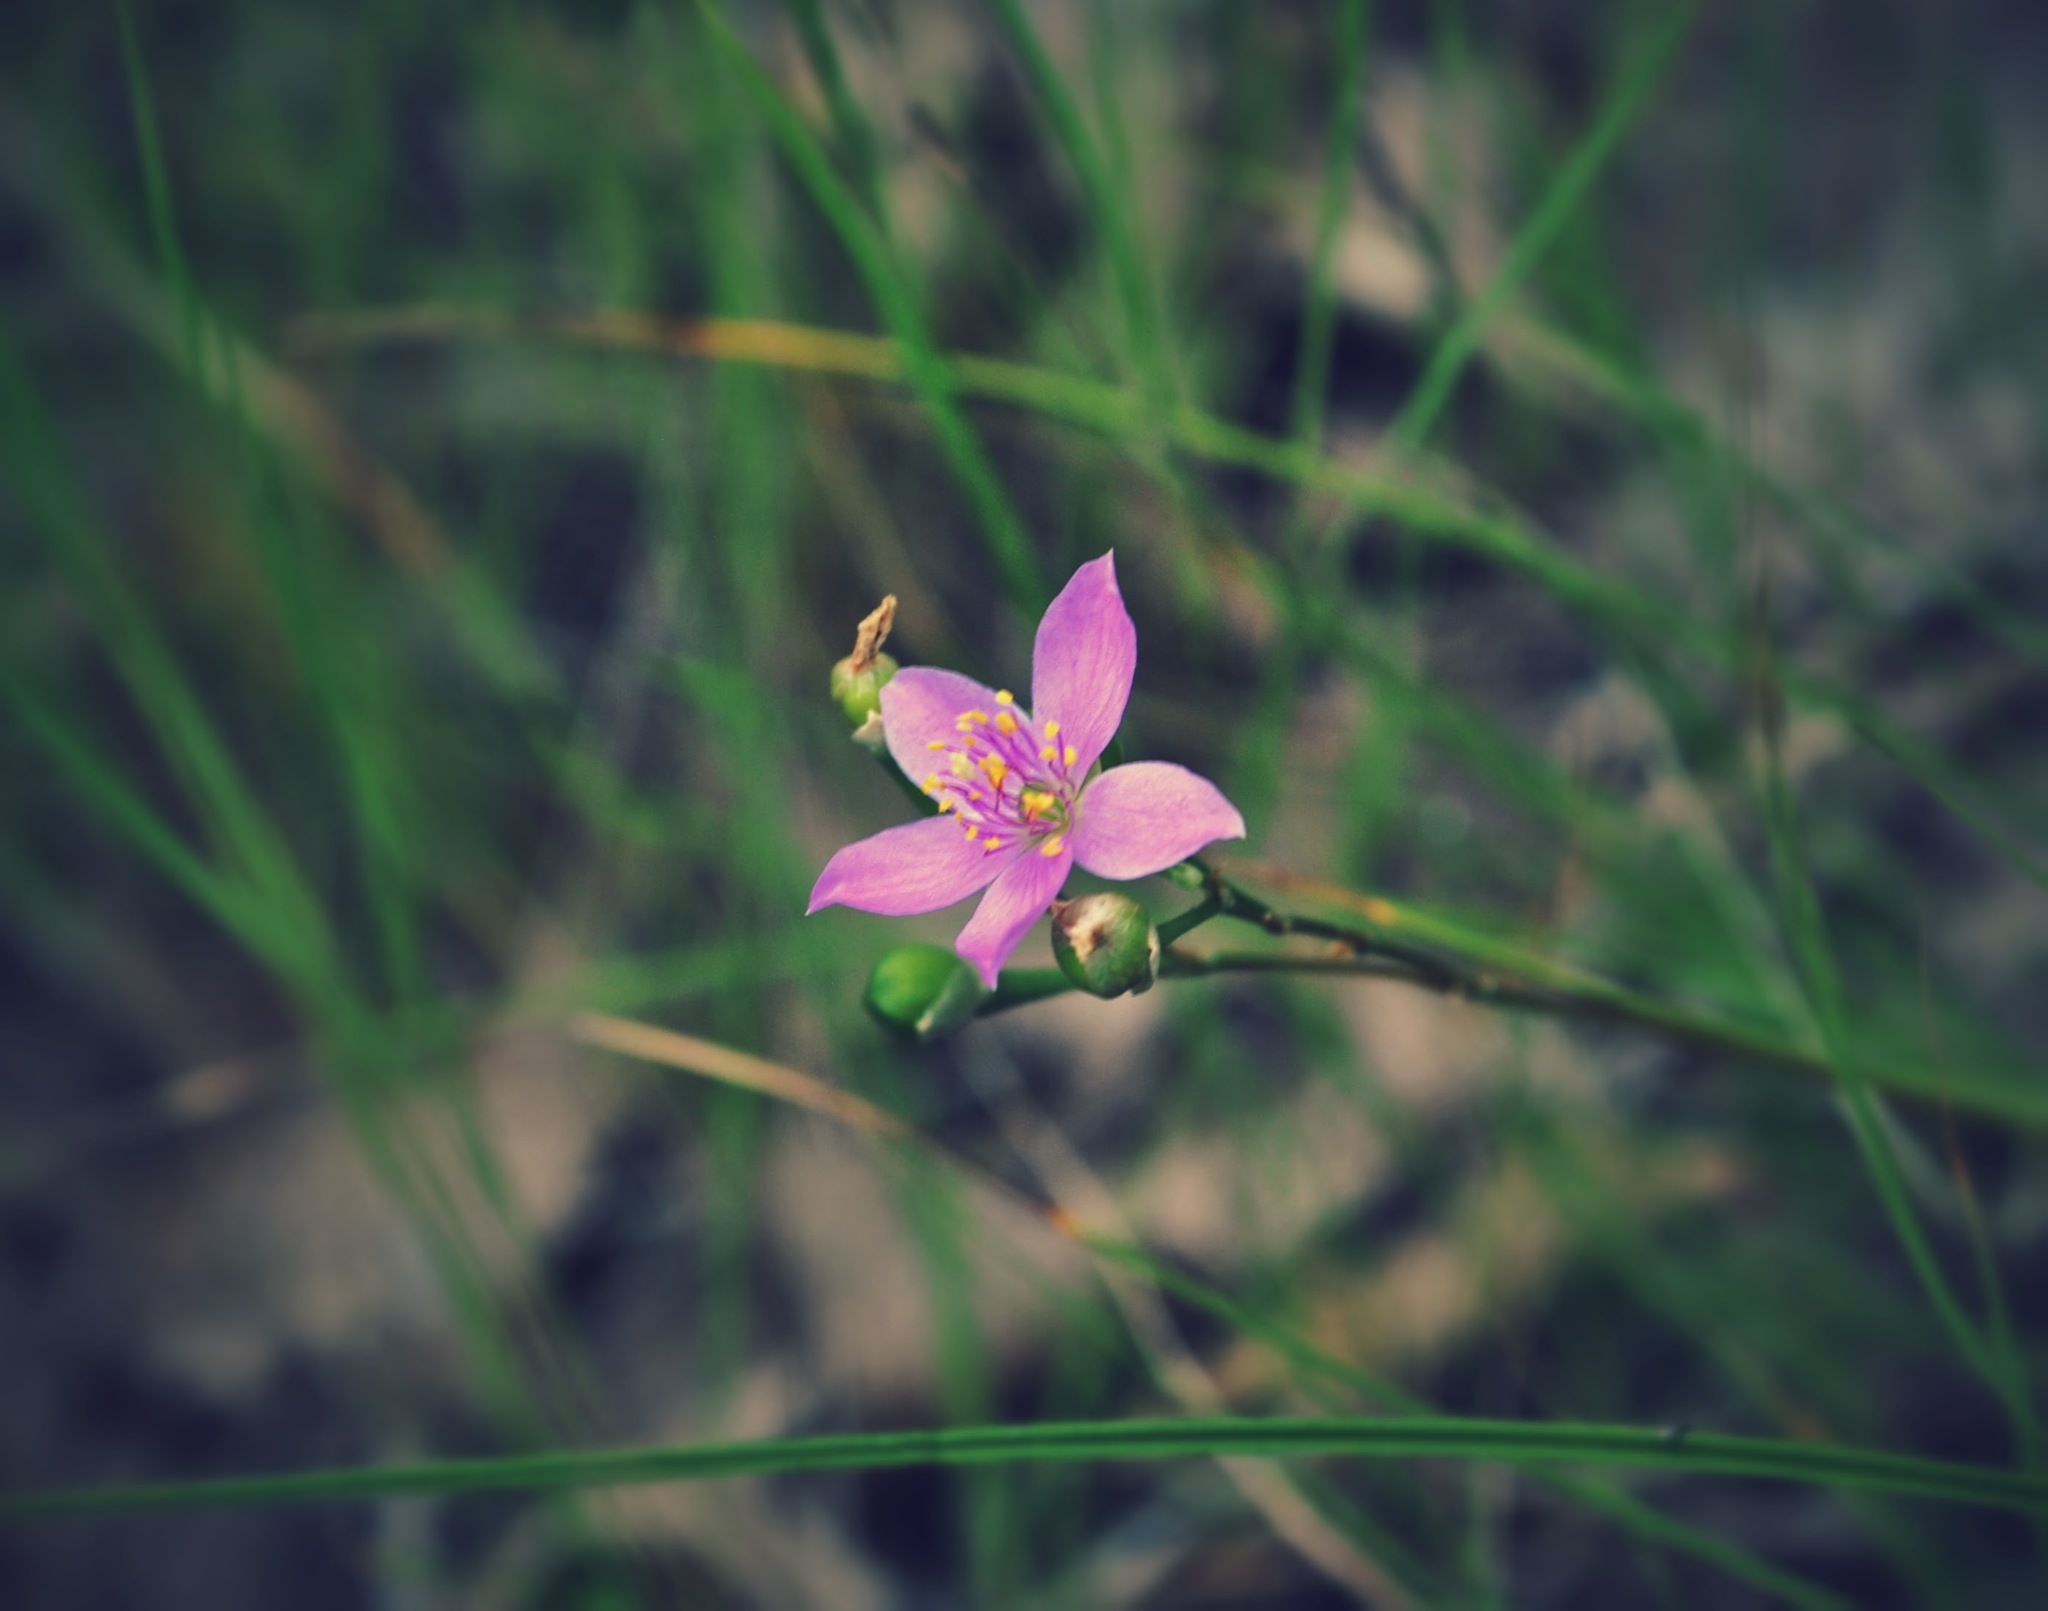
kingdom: Plantae
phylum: Tracheophyta
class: Magnoliopsida
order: Caryophyllales
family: Montiaceae
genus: Phemeranthus
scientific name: Phemeranthus rugospermus
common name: Prairie fameflower
